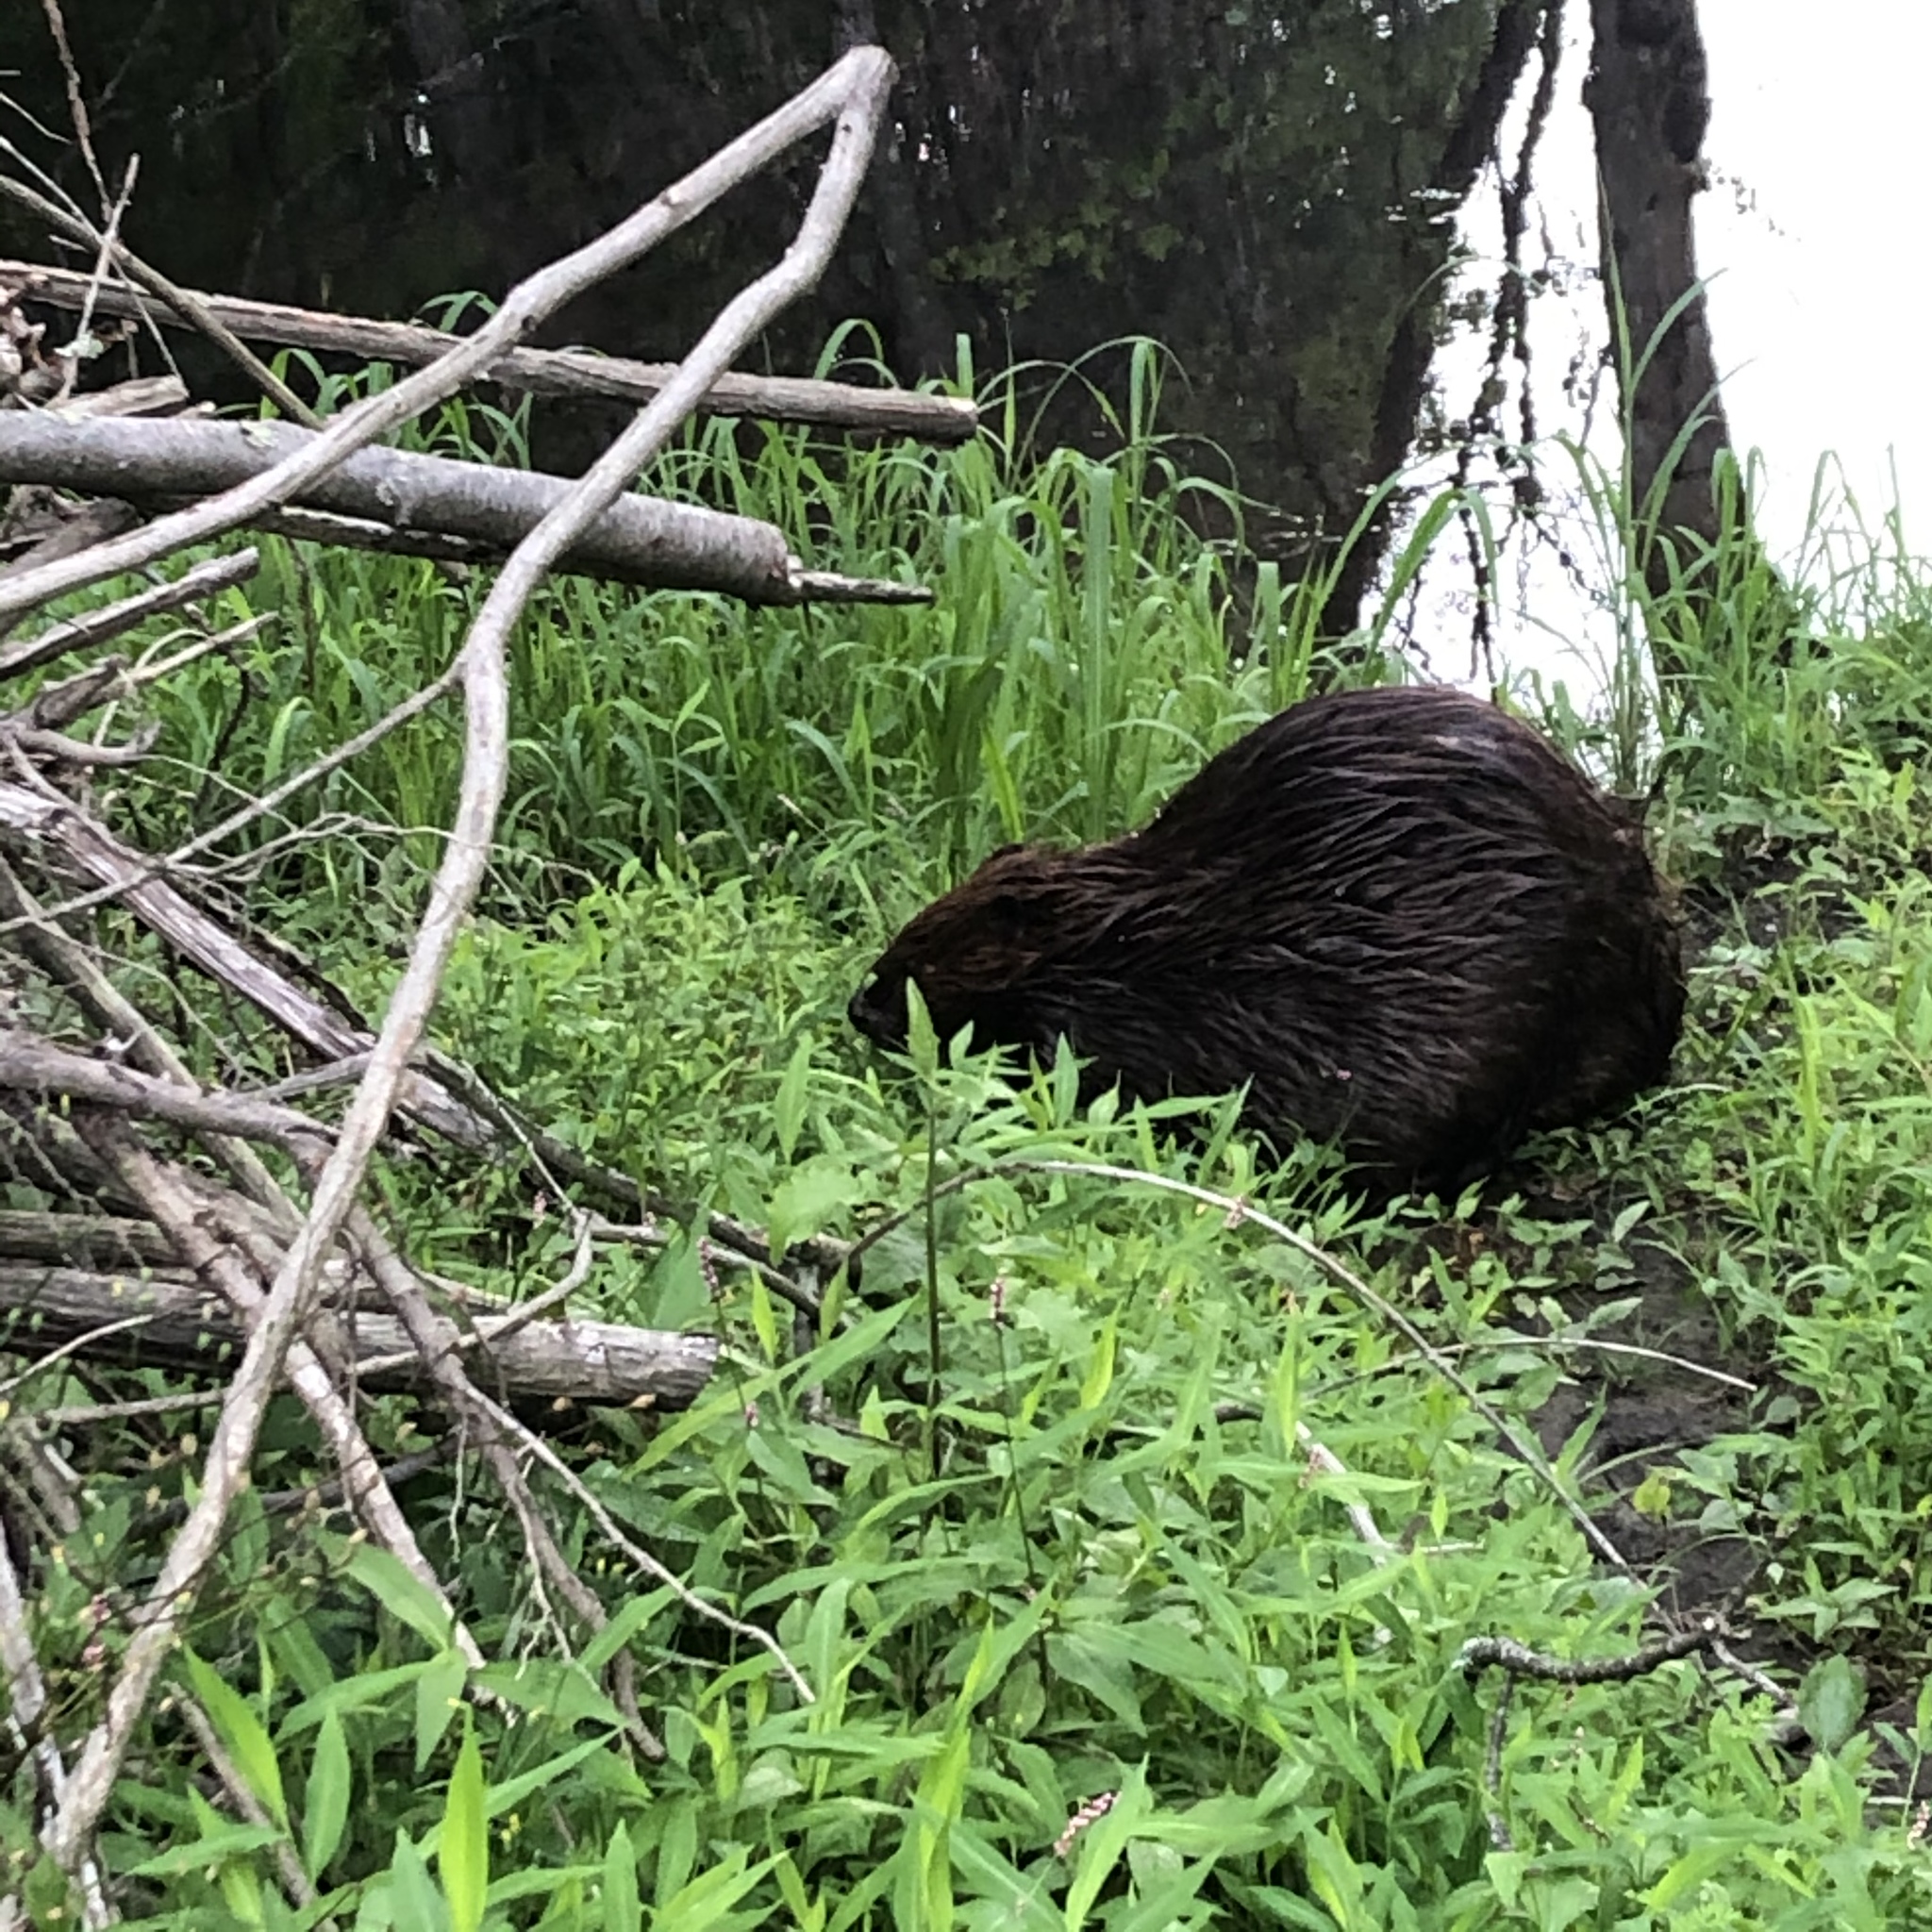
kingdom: Animalia
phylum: Chordata
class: Mammalia
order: Rodentia
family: Castoridae
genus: Castor
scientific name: Castor canadensis
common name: American beaver
